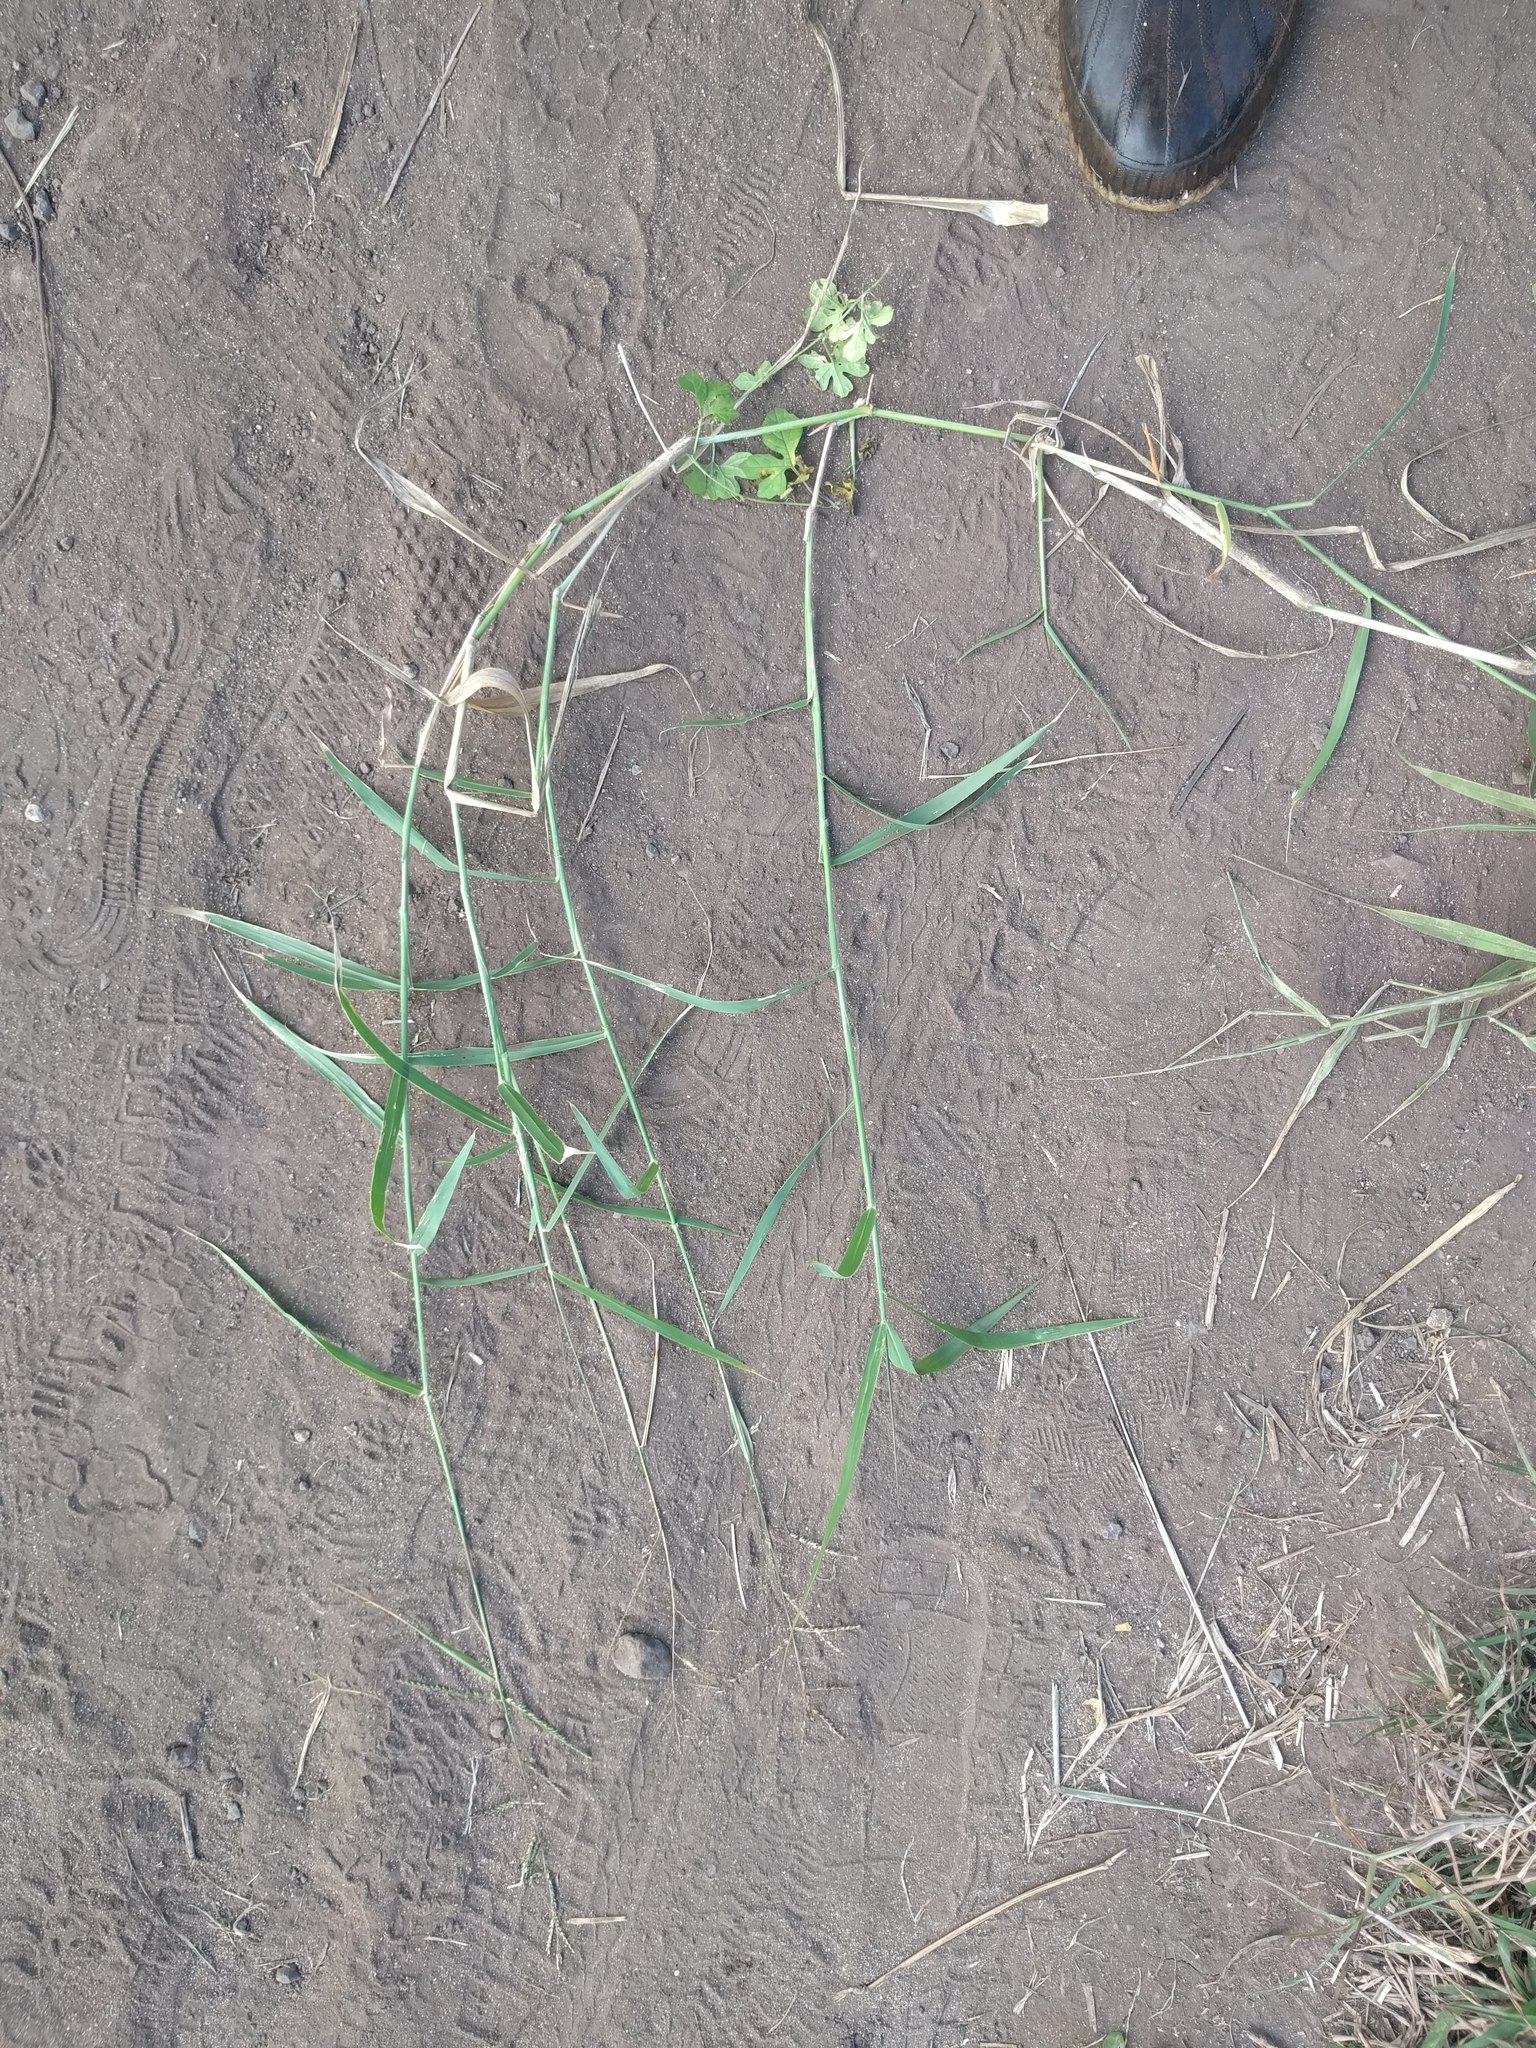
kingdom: Plantae
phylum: Tracheophyta
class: Liliopsida
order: Poales
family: Poaceae
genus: Urochloa
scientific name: Urochloa mutica
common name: Para grass
